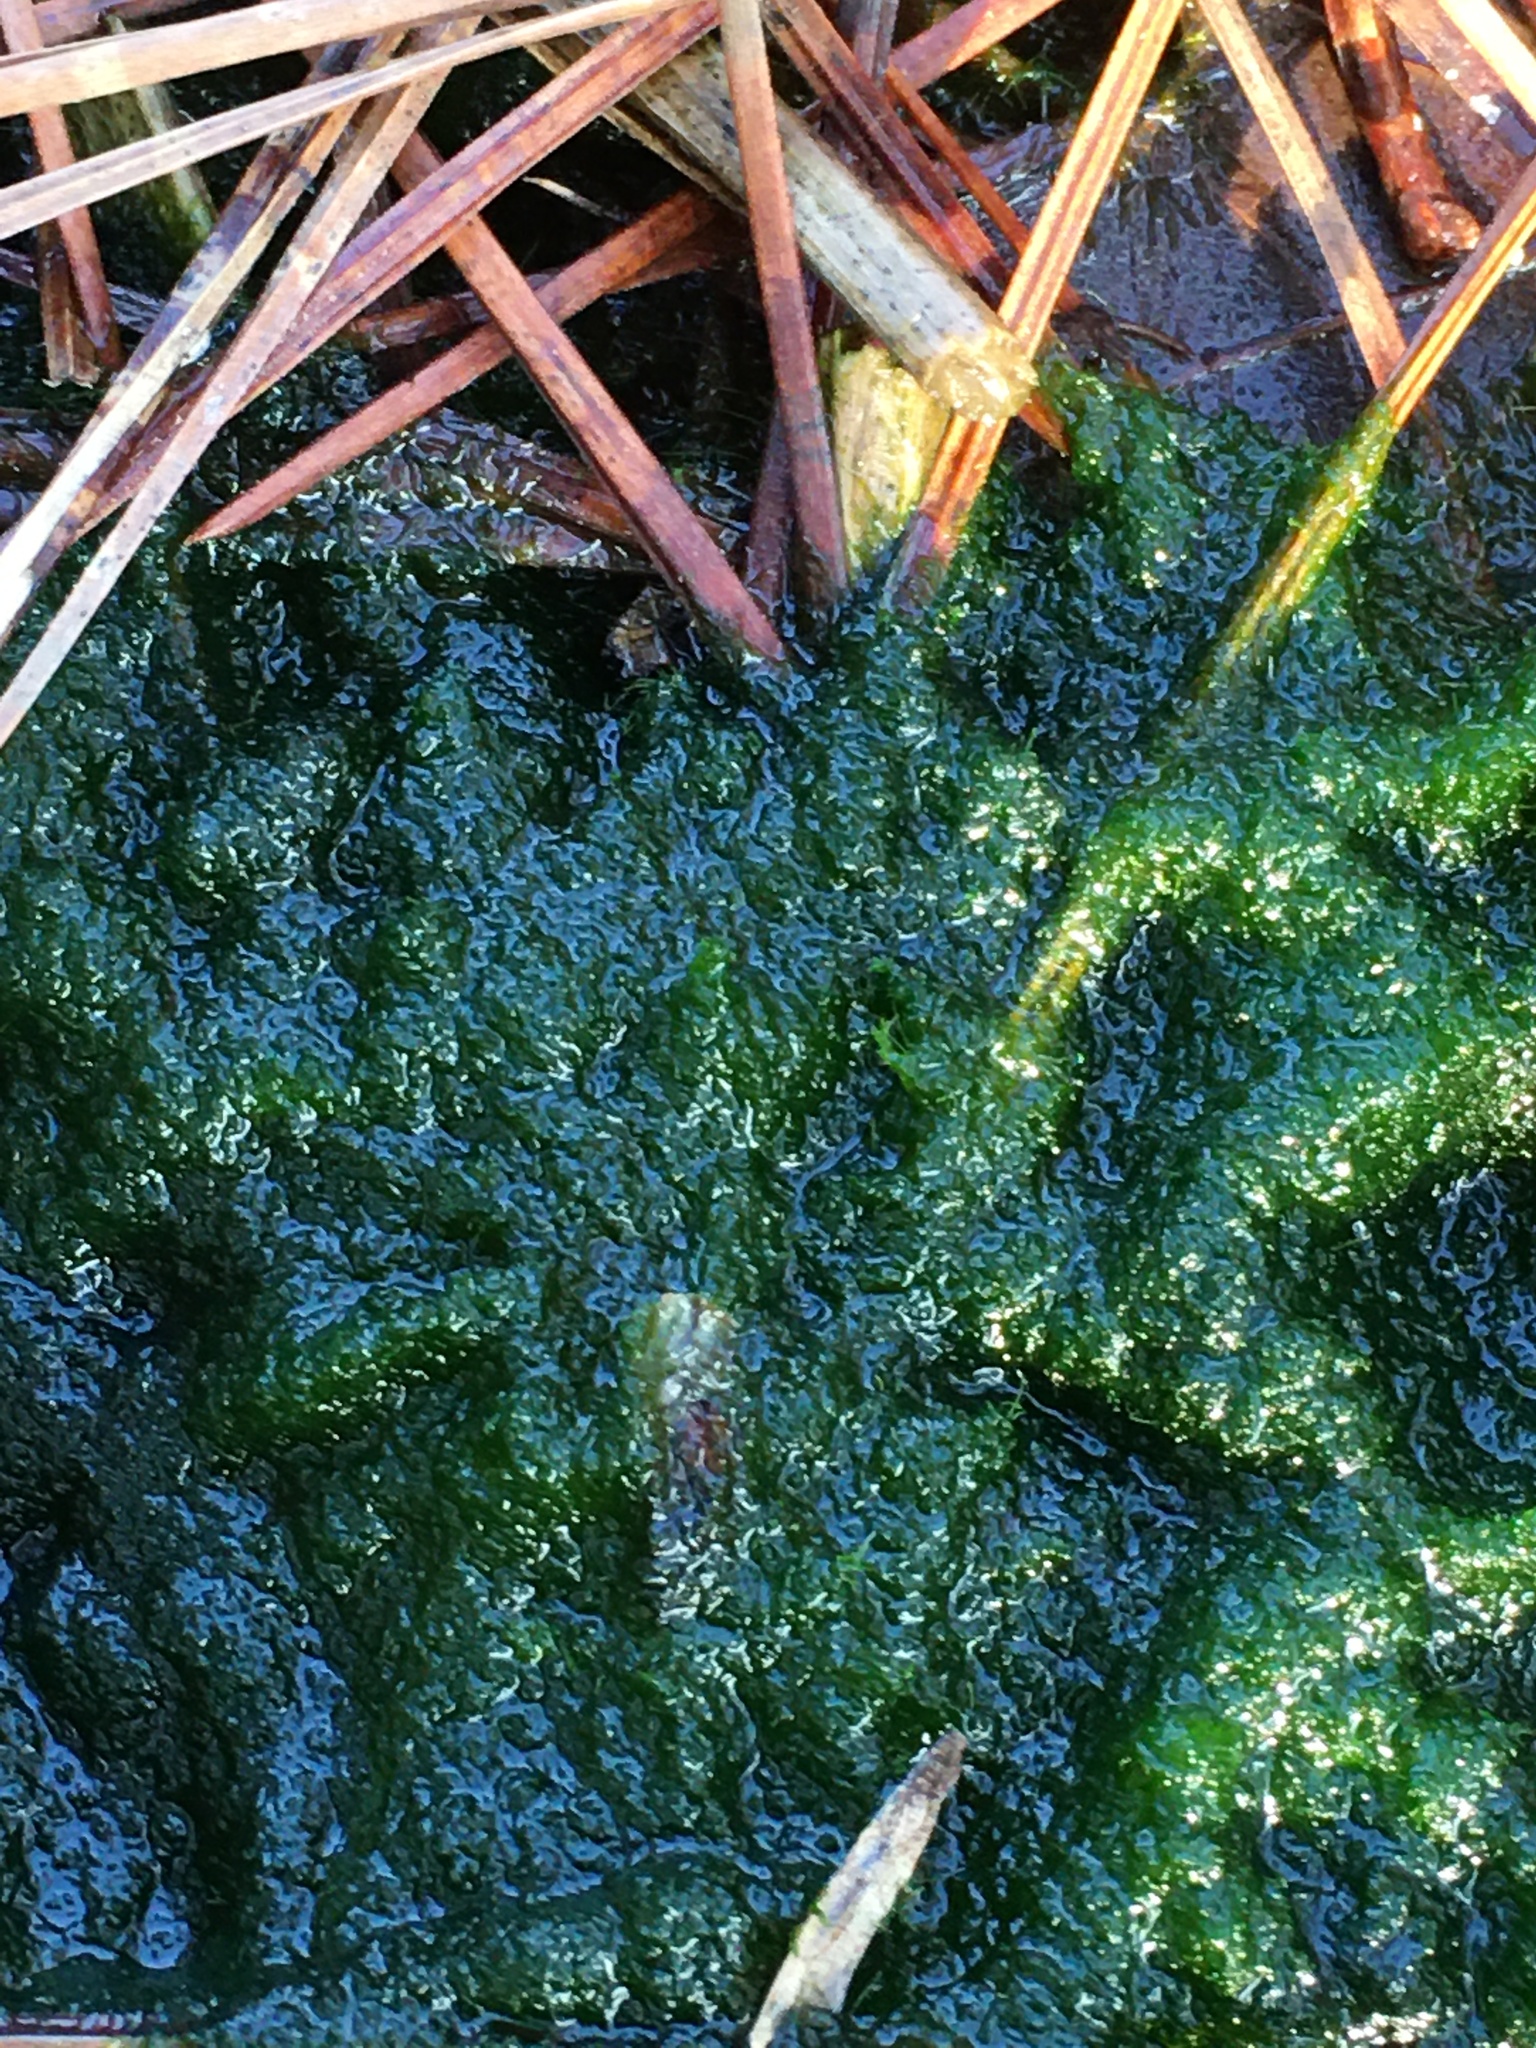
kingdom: Chromista
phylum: Ochrophyta
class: Xanthophyceae
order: Vaucheriales
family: Vaucheriaceae
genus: Vaucheria
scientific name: Vaucheria
